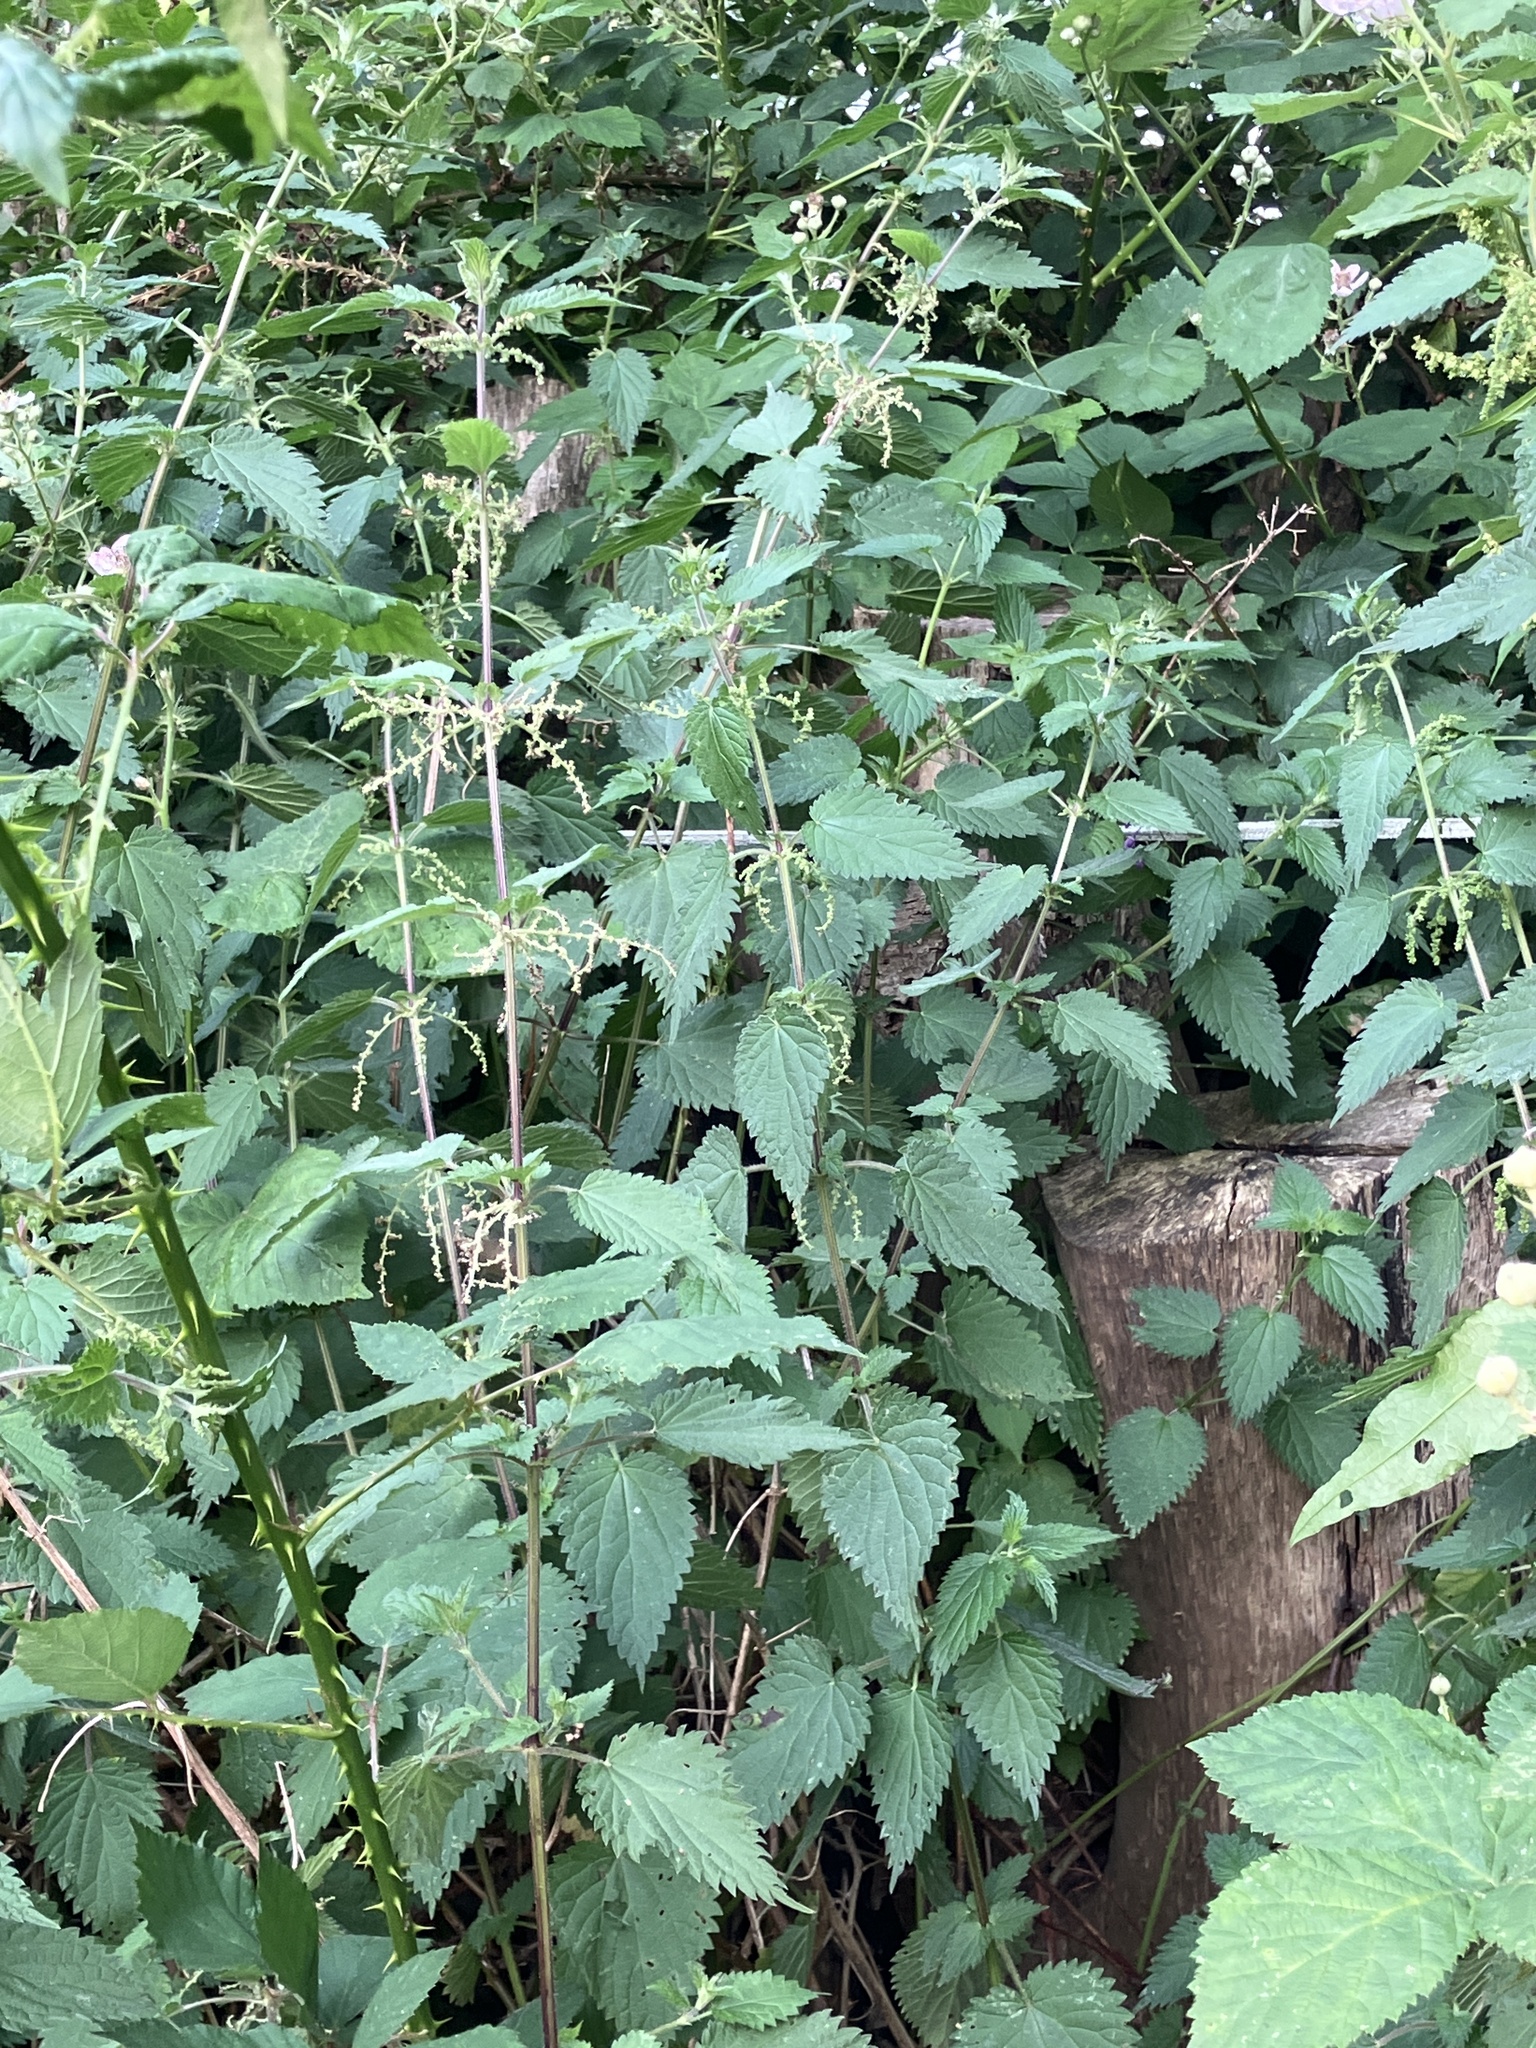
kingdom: Plantae
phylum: Tracheophyta
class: Magnoliopsida
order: Rosales
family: Urticaceae
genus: Urtica
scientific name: Urtica dioica
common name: Common nettle
